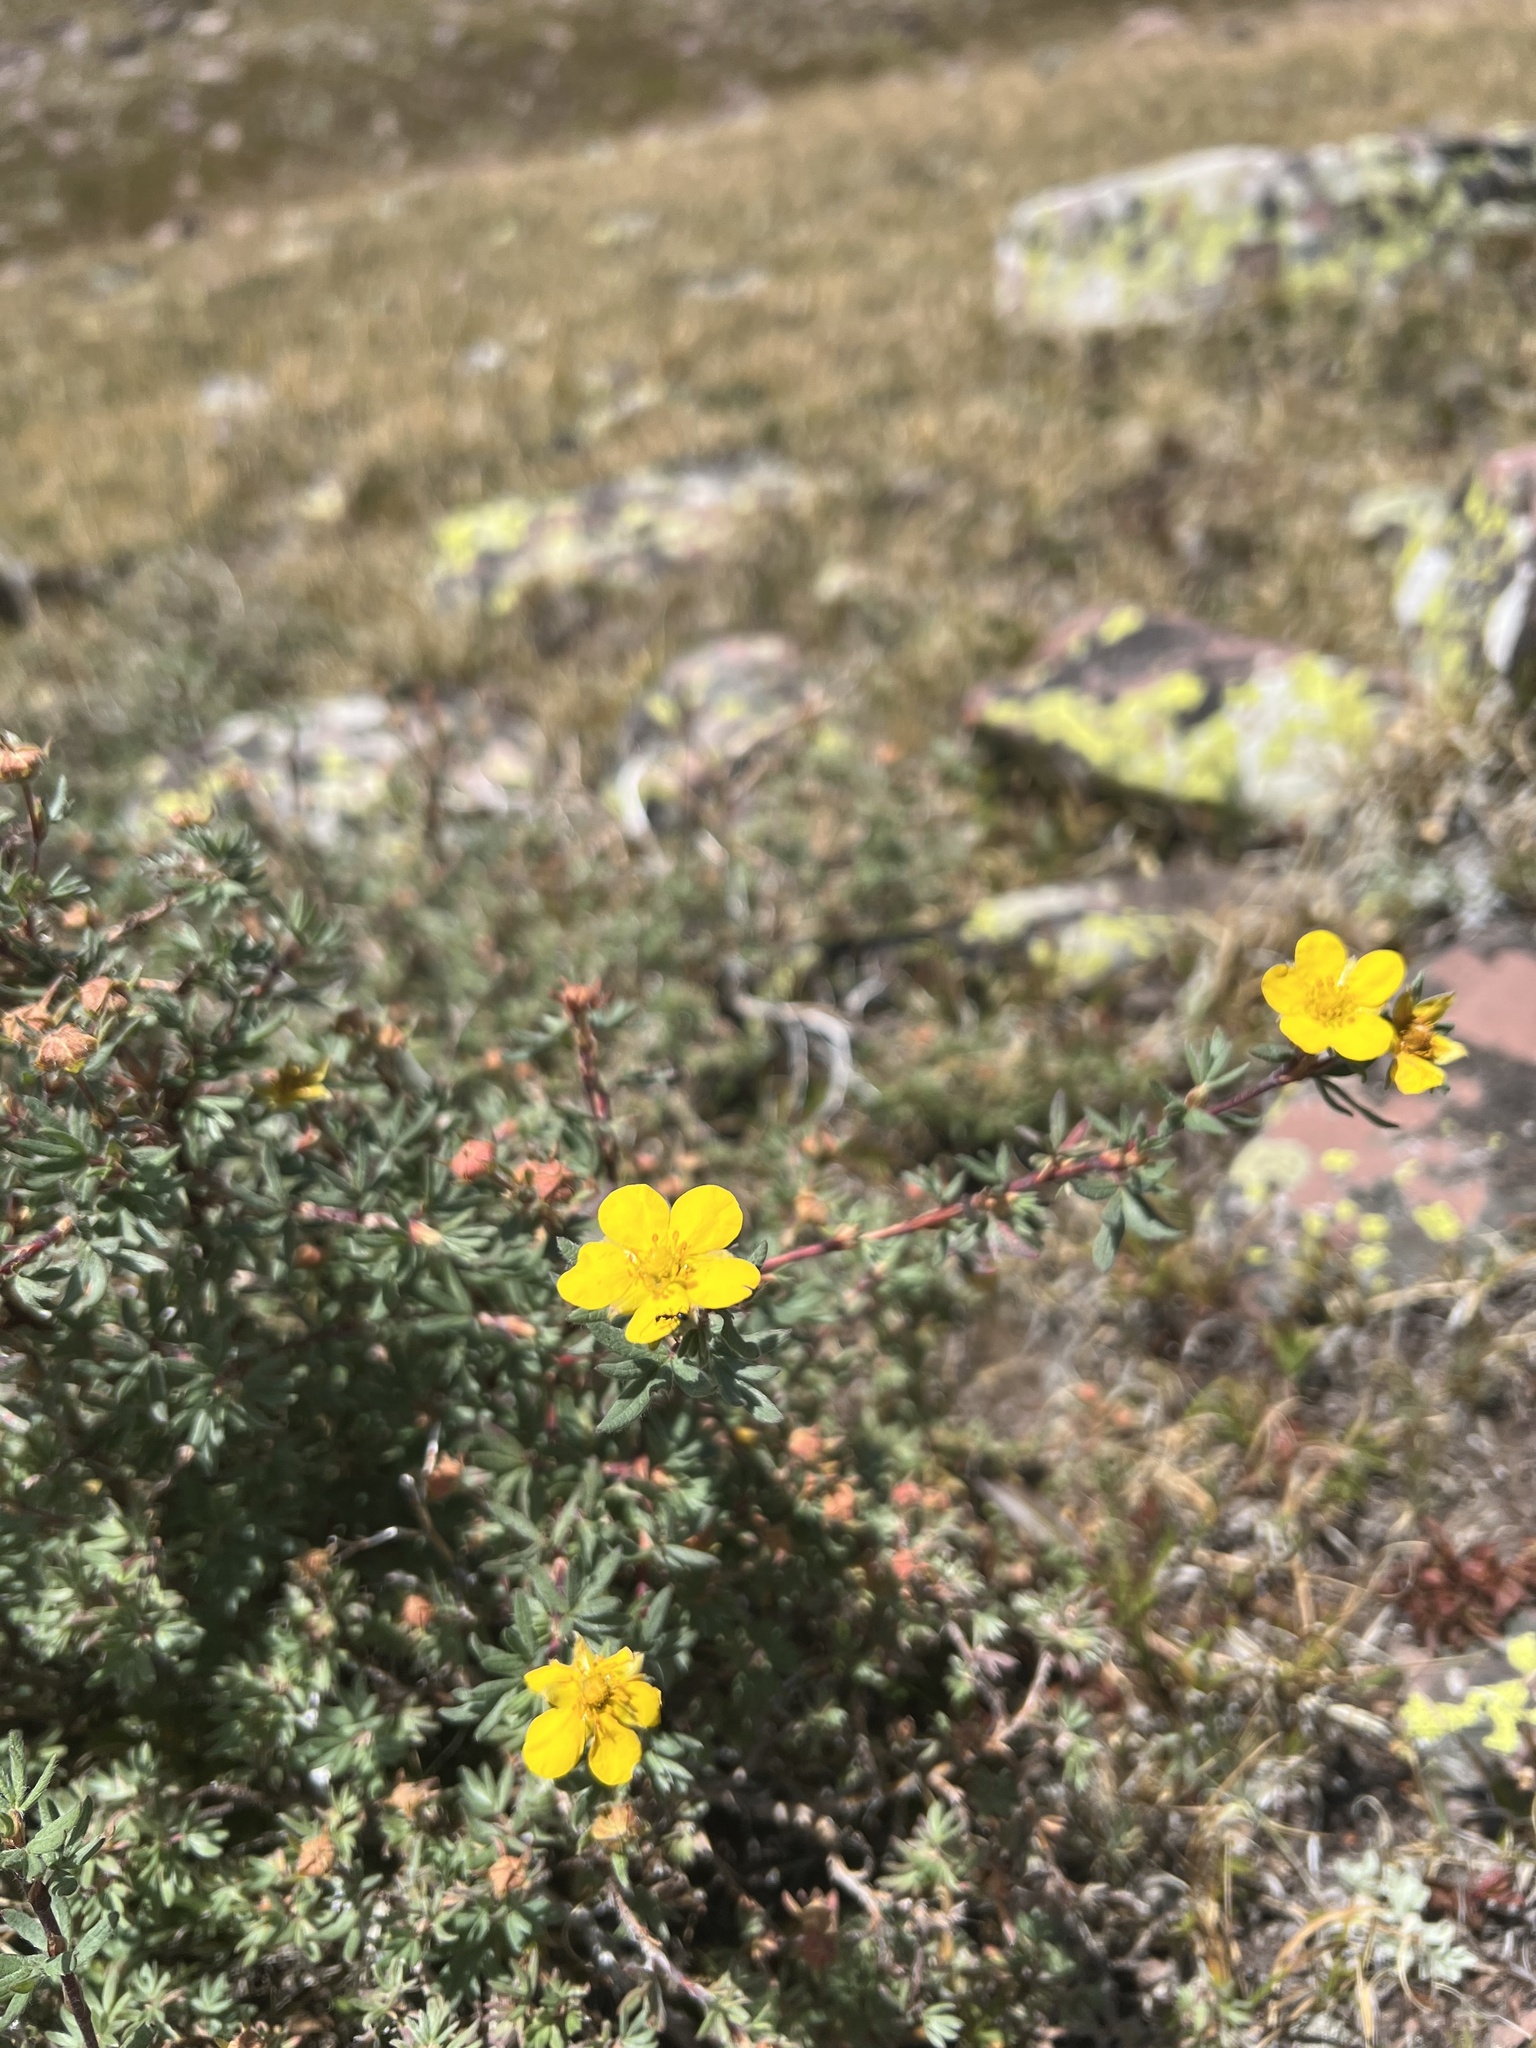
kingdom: Plantae
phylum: Tracheophyta
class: Magnoliopsida
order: Rosales
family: Rosaceae
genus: Dasiphora
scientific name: Dasiphora fruticosa
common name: Shrubby cinquefoil
